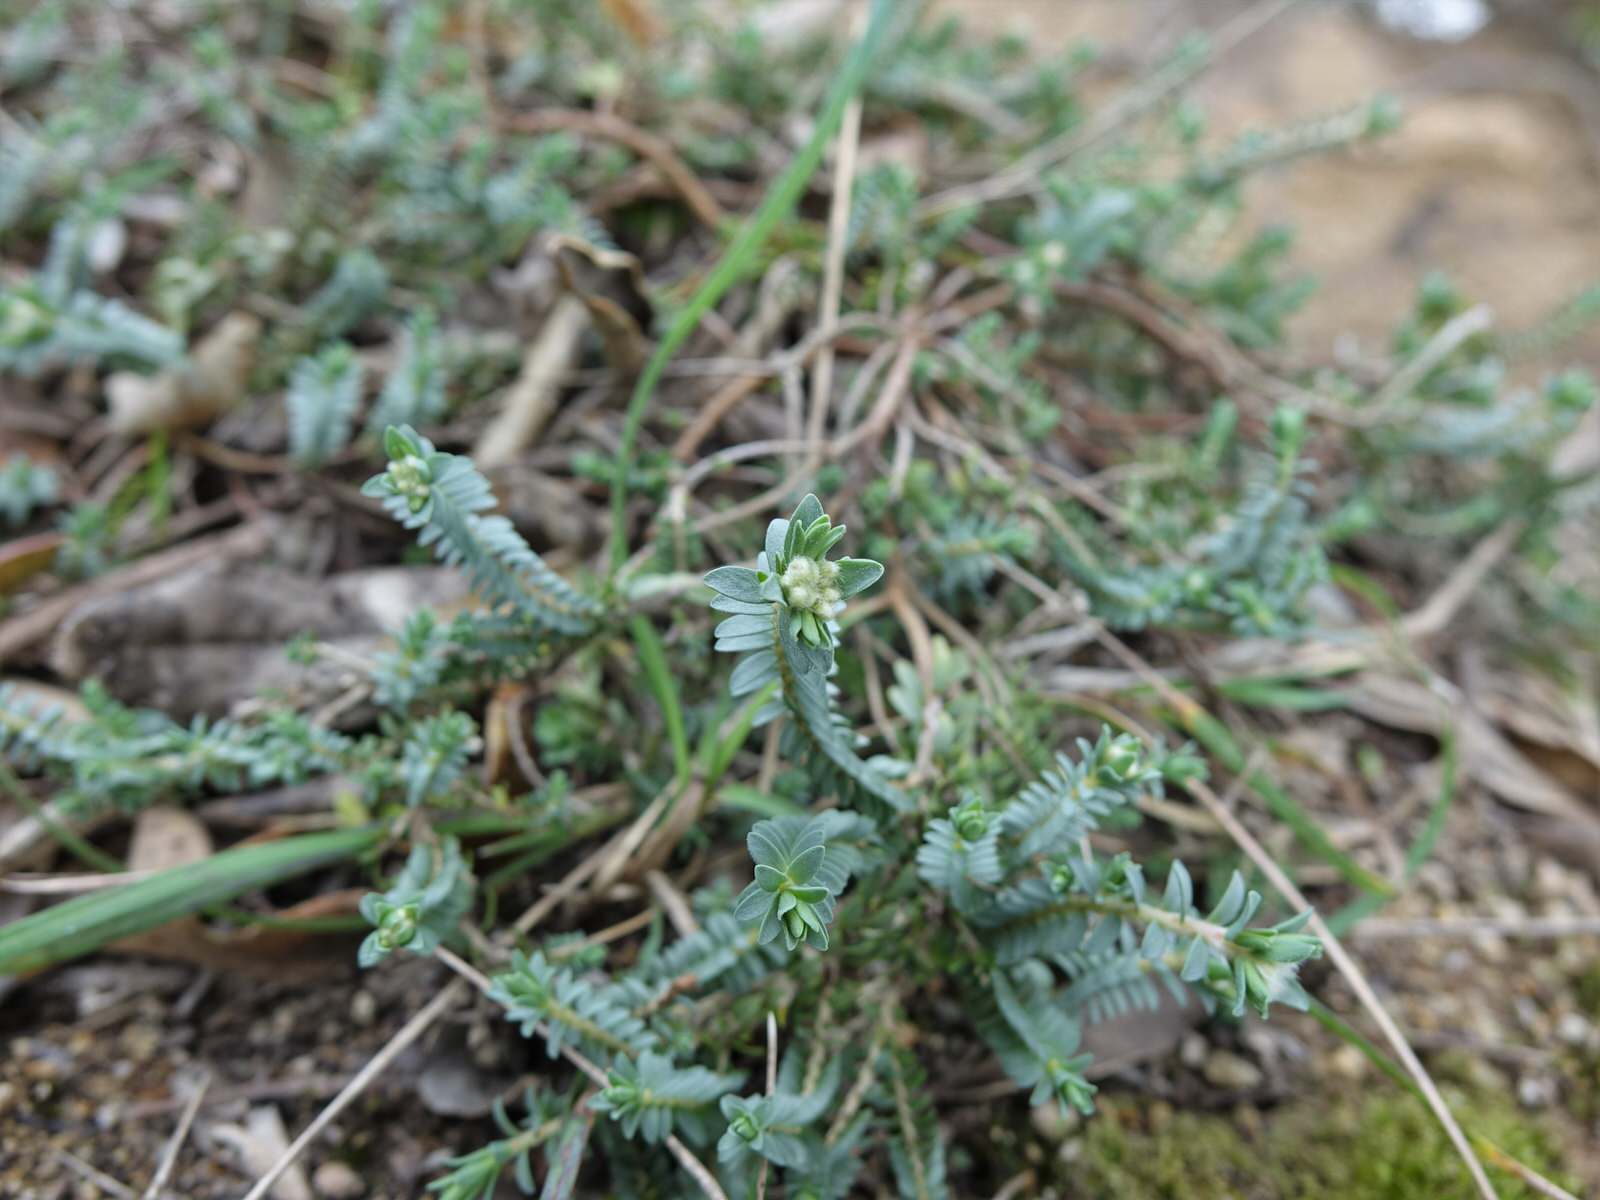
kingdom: Plantae
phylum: Tracheophyta
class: Magnoliopsida
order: Malvales
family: Thymelaeaceae
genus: Pimelea
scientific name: Pimelea prostrata
